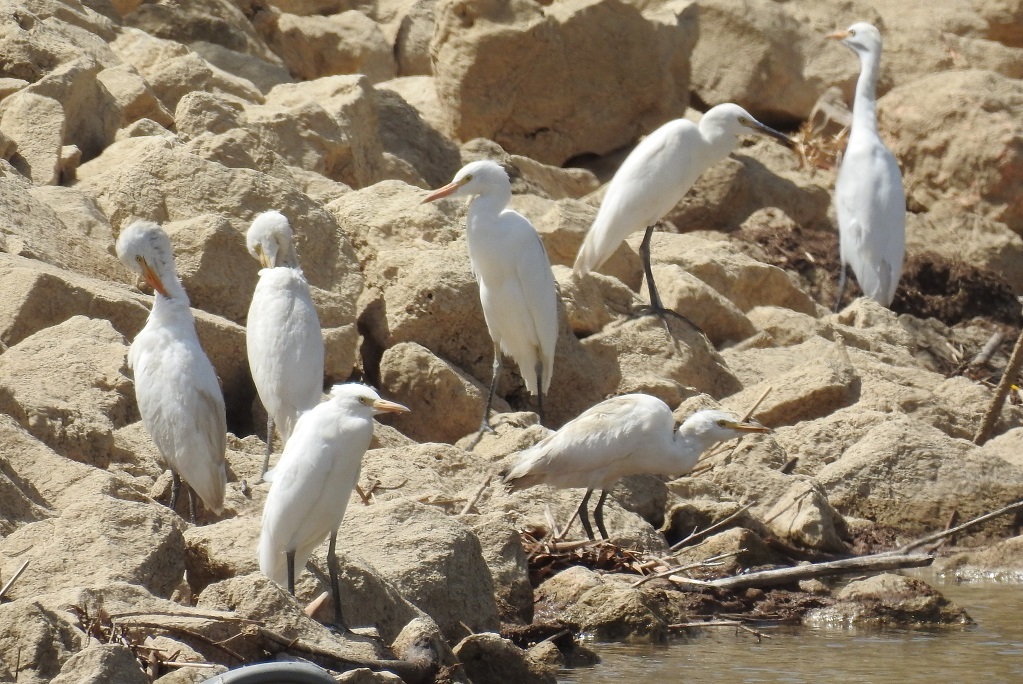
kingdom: Animalia
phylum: Chordata
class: Aves
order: Pelecaniformes
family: Ardeidae
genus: Bubulcus
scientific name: Bubulcus ibis
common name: Cattle egret
